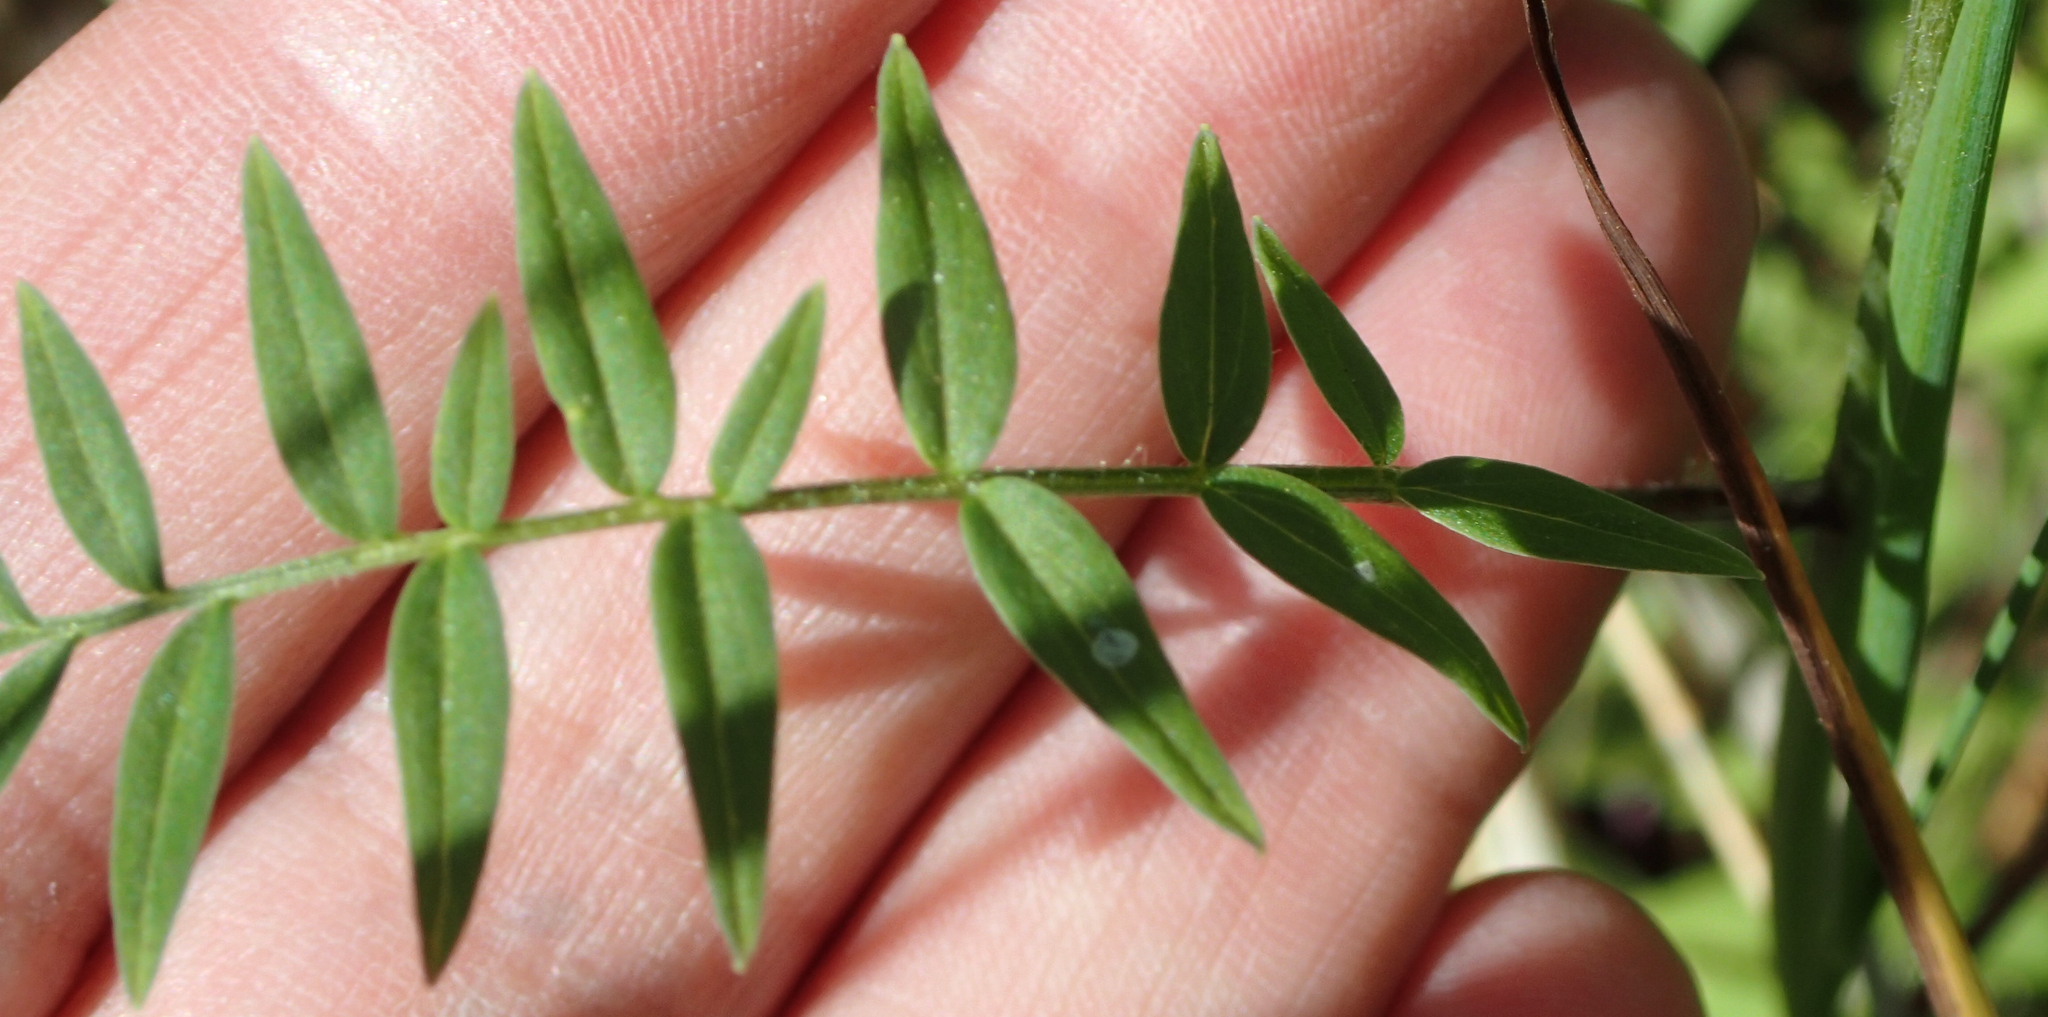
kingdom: Plantae
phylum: Tracheophyta
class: Magnoliopsida
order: Ericales
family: Polemoniaceae
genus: Polemonium
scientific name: Polemonium acutiflorum
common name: Tall jacob's-ladder
